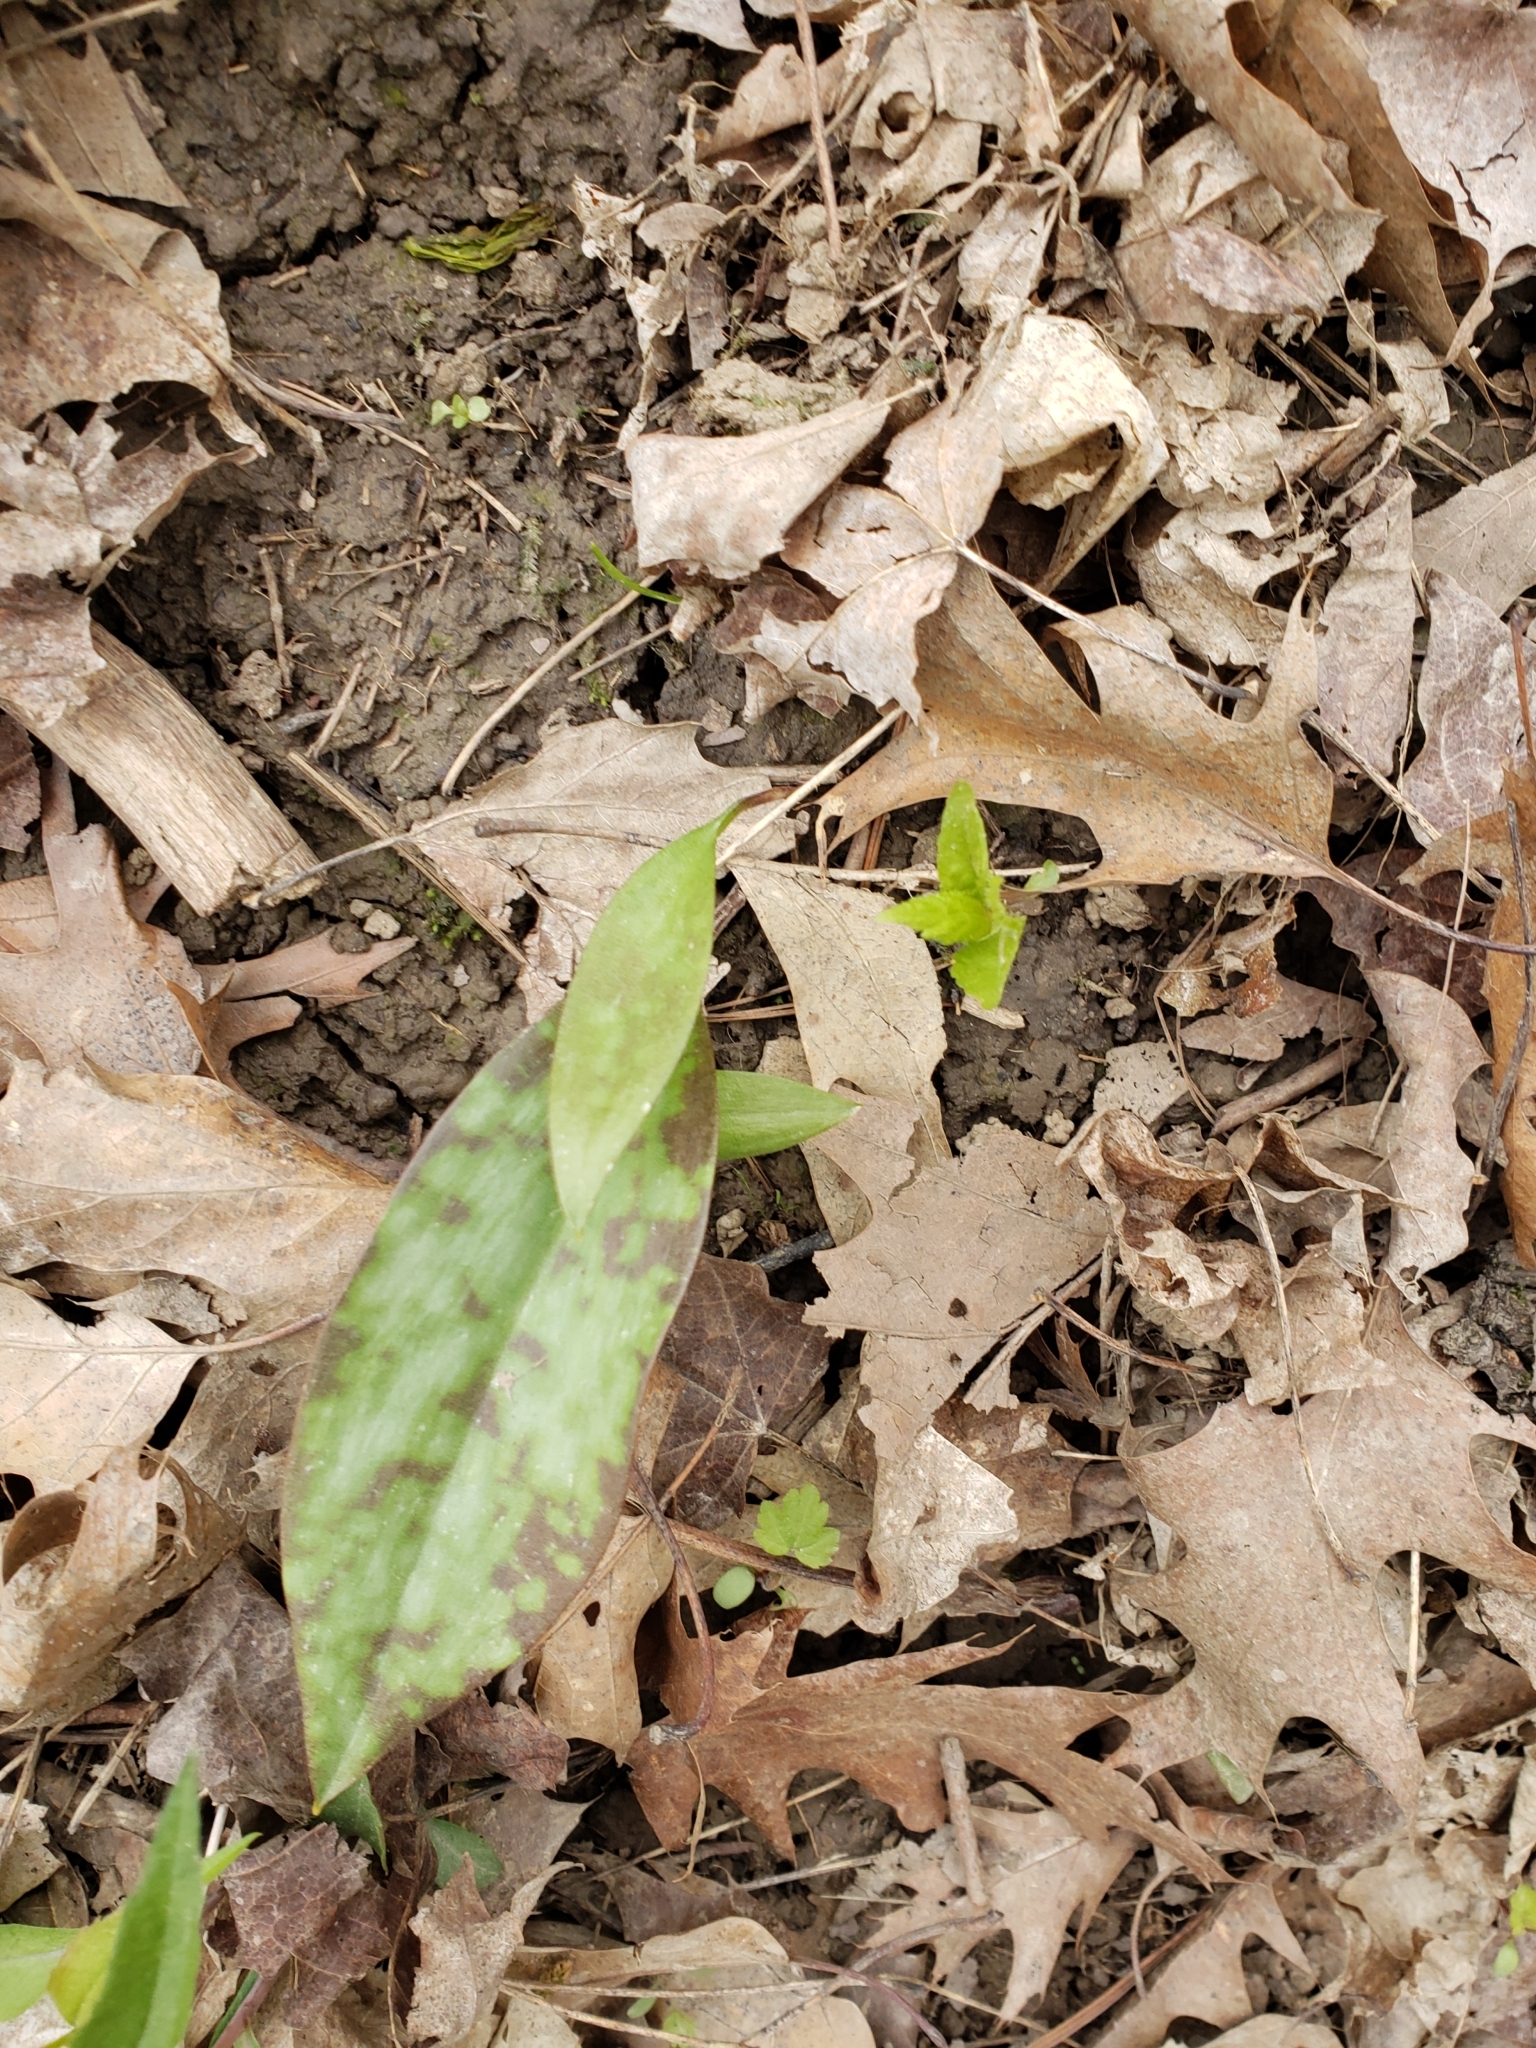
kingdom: Plantae
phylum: Tracheophyta
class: Liliopsida
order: Liliales
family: Liliaceae
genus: Erythronium
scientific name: Erythronium americanum
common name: Yellow adder's-tongue
